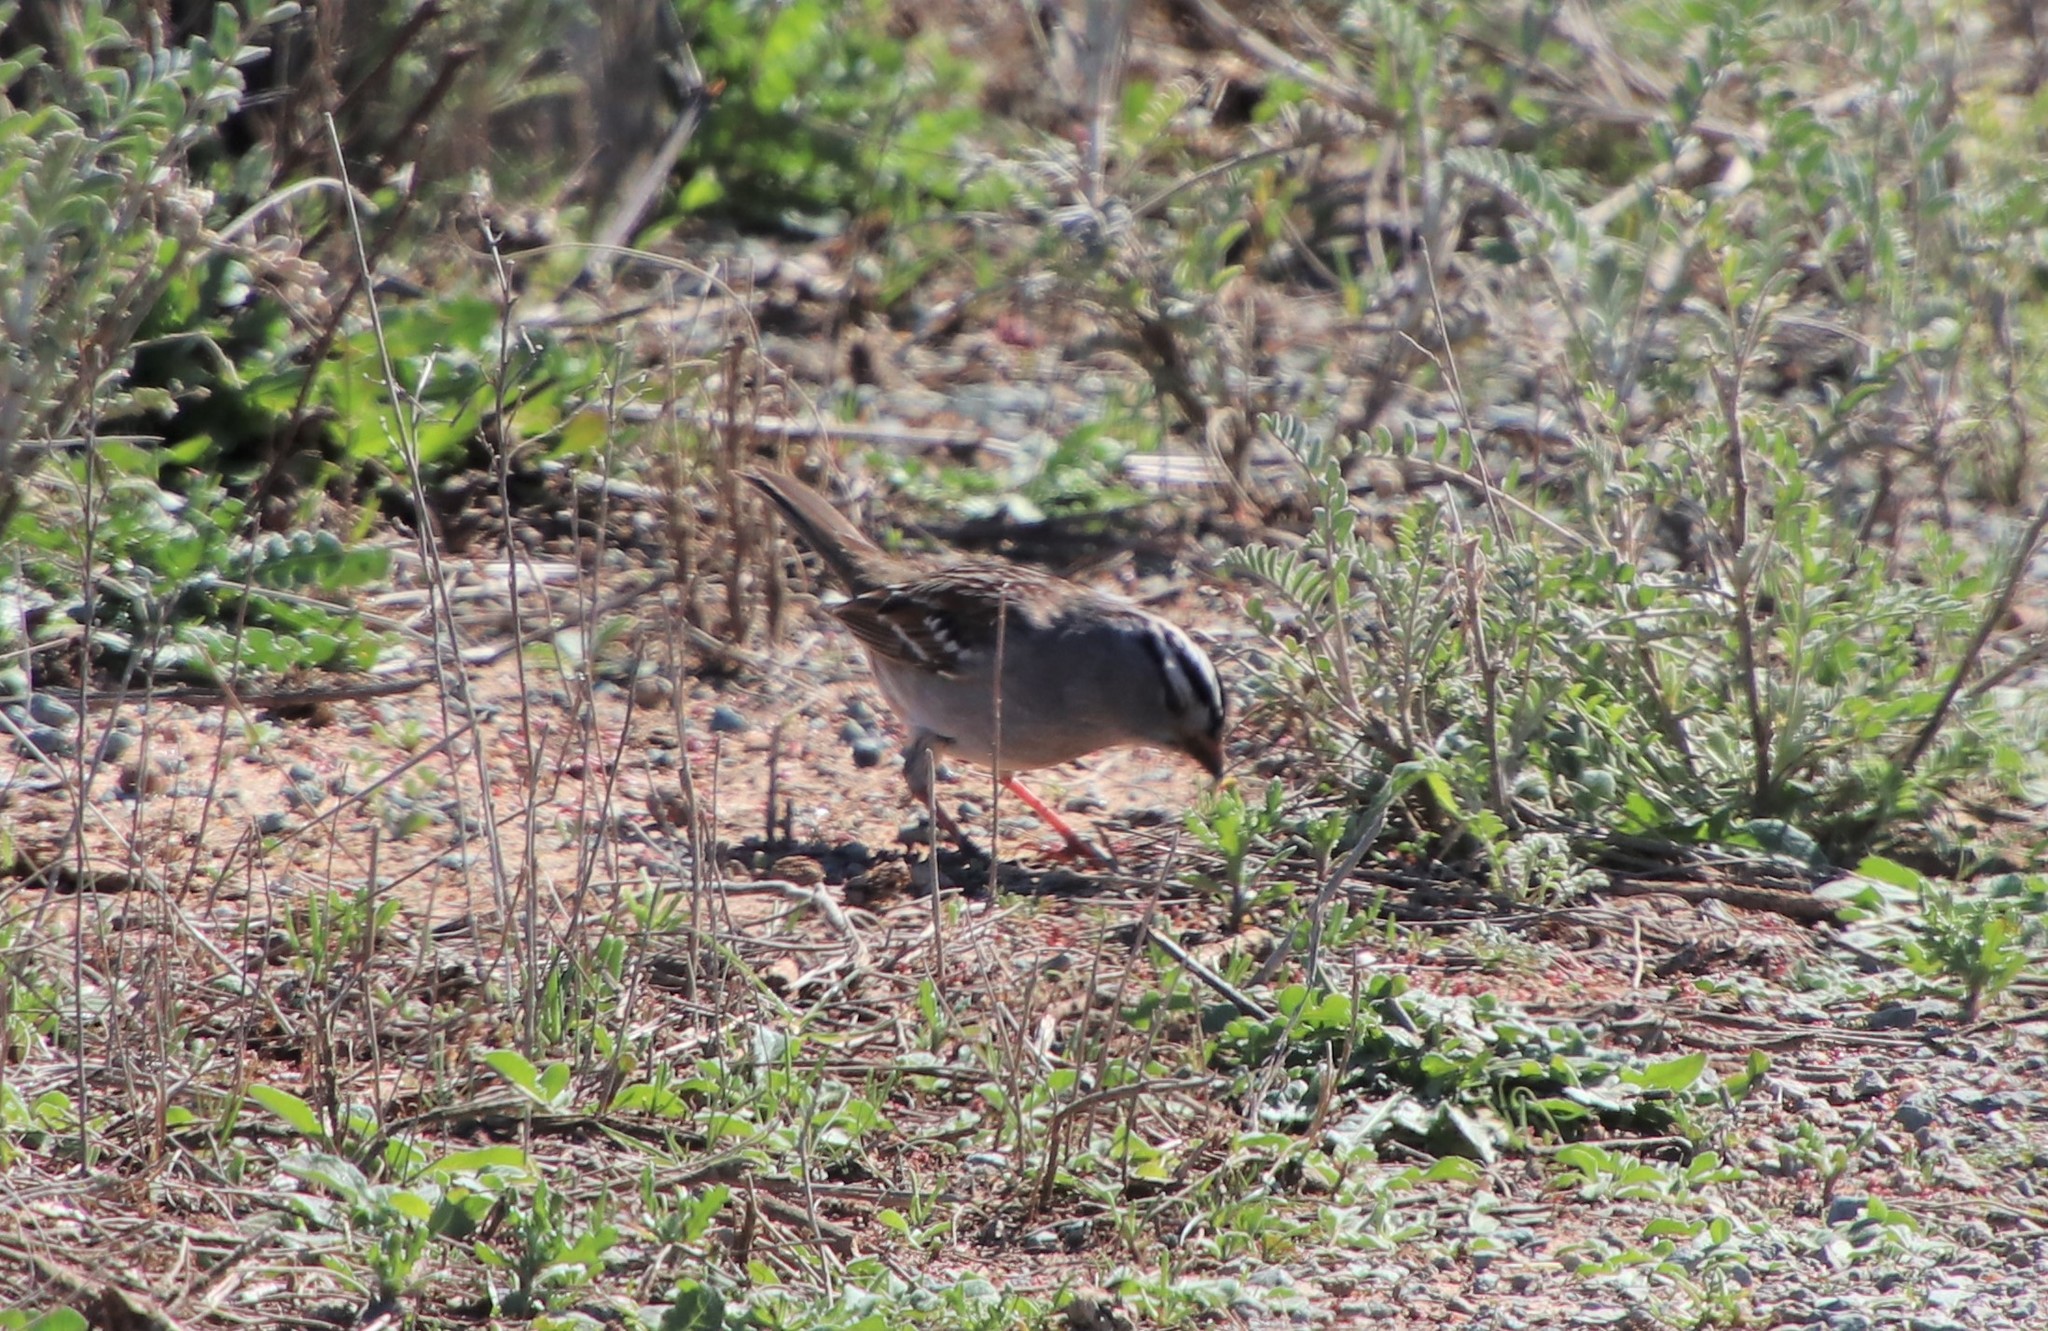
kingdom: Animalia
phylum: Chordata
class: Aves
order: Passeriformes
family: Passerellidae
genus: Zonotrichia
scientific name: Zonotrichia leucophrys
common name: White-crowned sparrow
